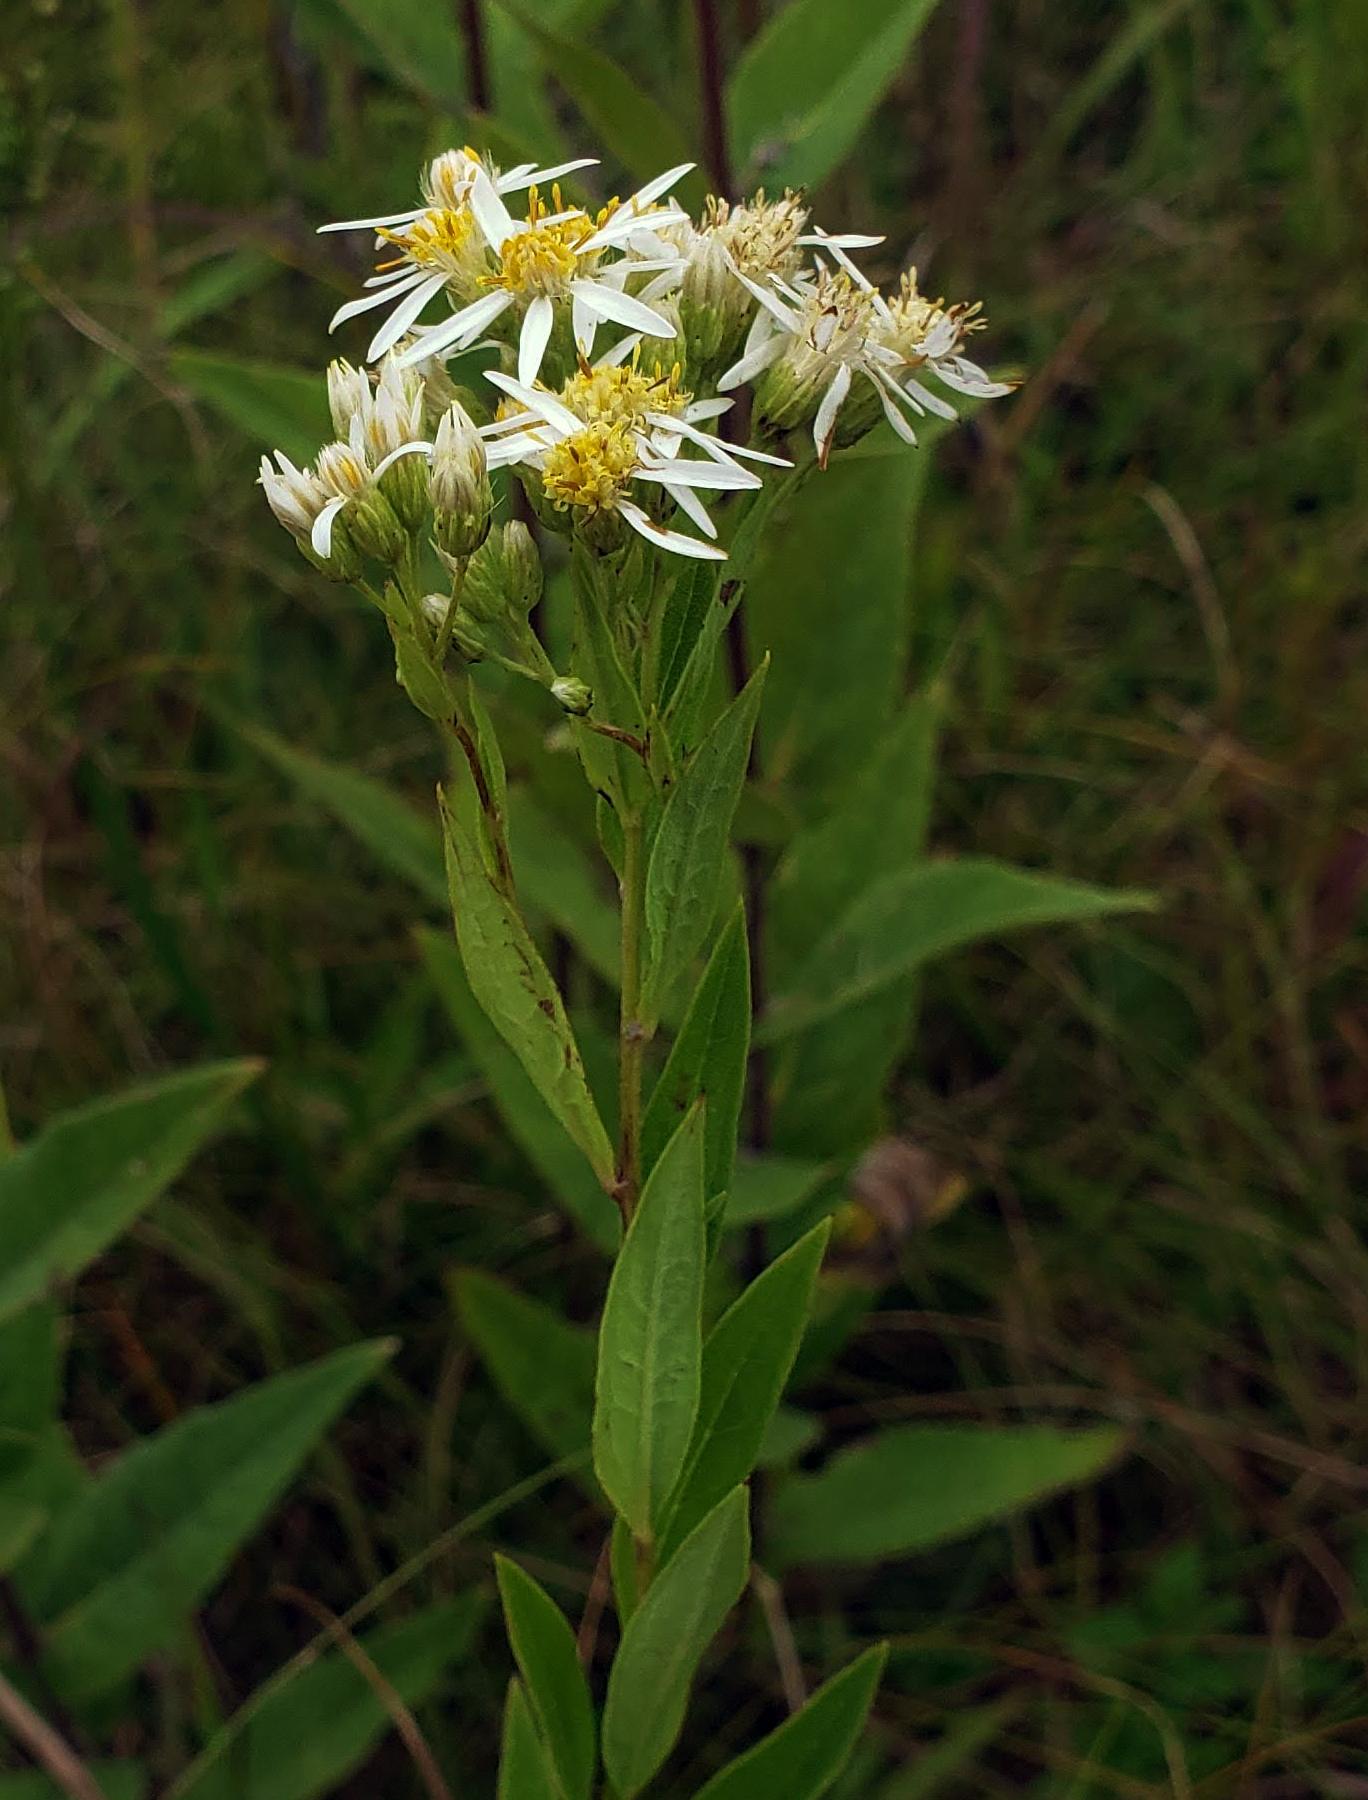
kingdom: Plantae
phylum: Tracheophyta
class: Magnoliopsida
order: Asterales
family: Asteraceae
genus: Doellingeria
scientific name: Doellingeria umbellata
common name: Flat-top white aster
